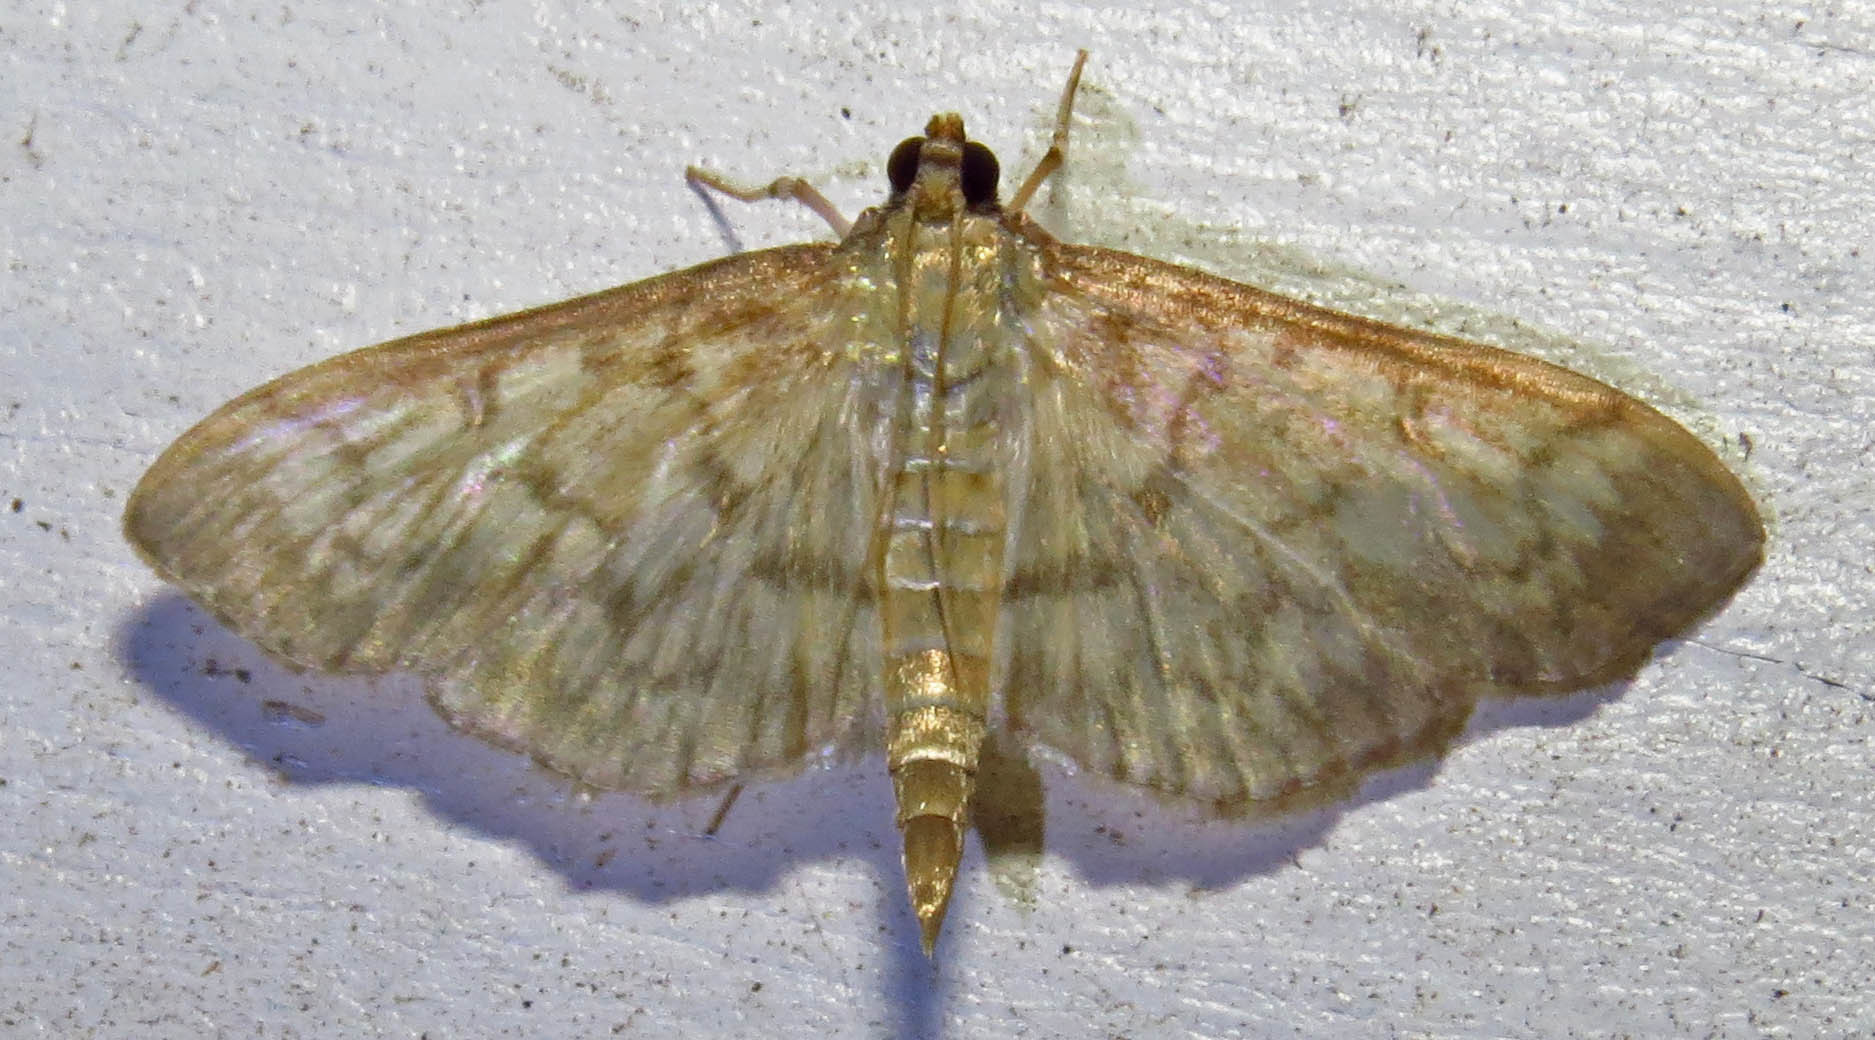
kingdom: Animalia
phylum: Arthropoda
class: Insecta
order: Lepidoptera
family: Crambidae
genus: Herpetogramma
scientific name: Herpetogramma pertextalis
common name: Bold-feathered grass moth
